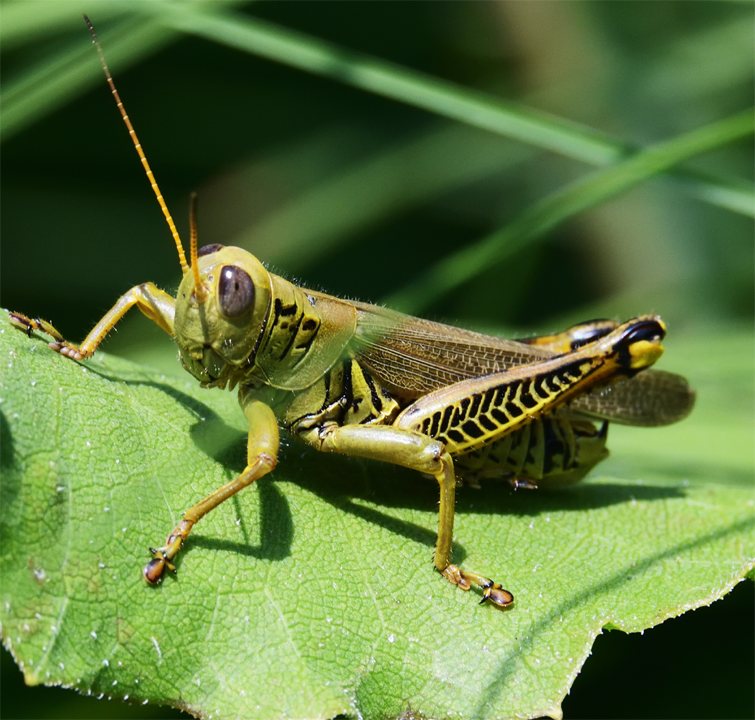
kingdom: Animalia
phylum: Arthropoda
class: Insecta
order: Orthoptera
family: Acrididae
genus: Melanoplus
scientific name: Melanoplus differentialis
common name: Differential grasshopper
